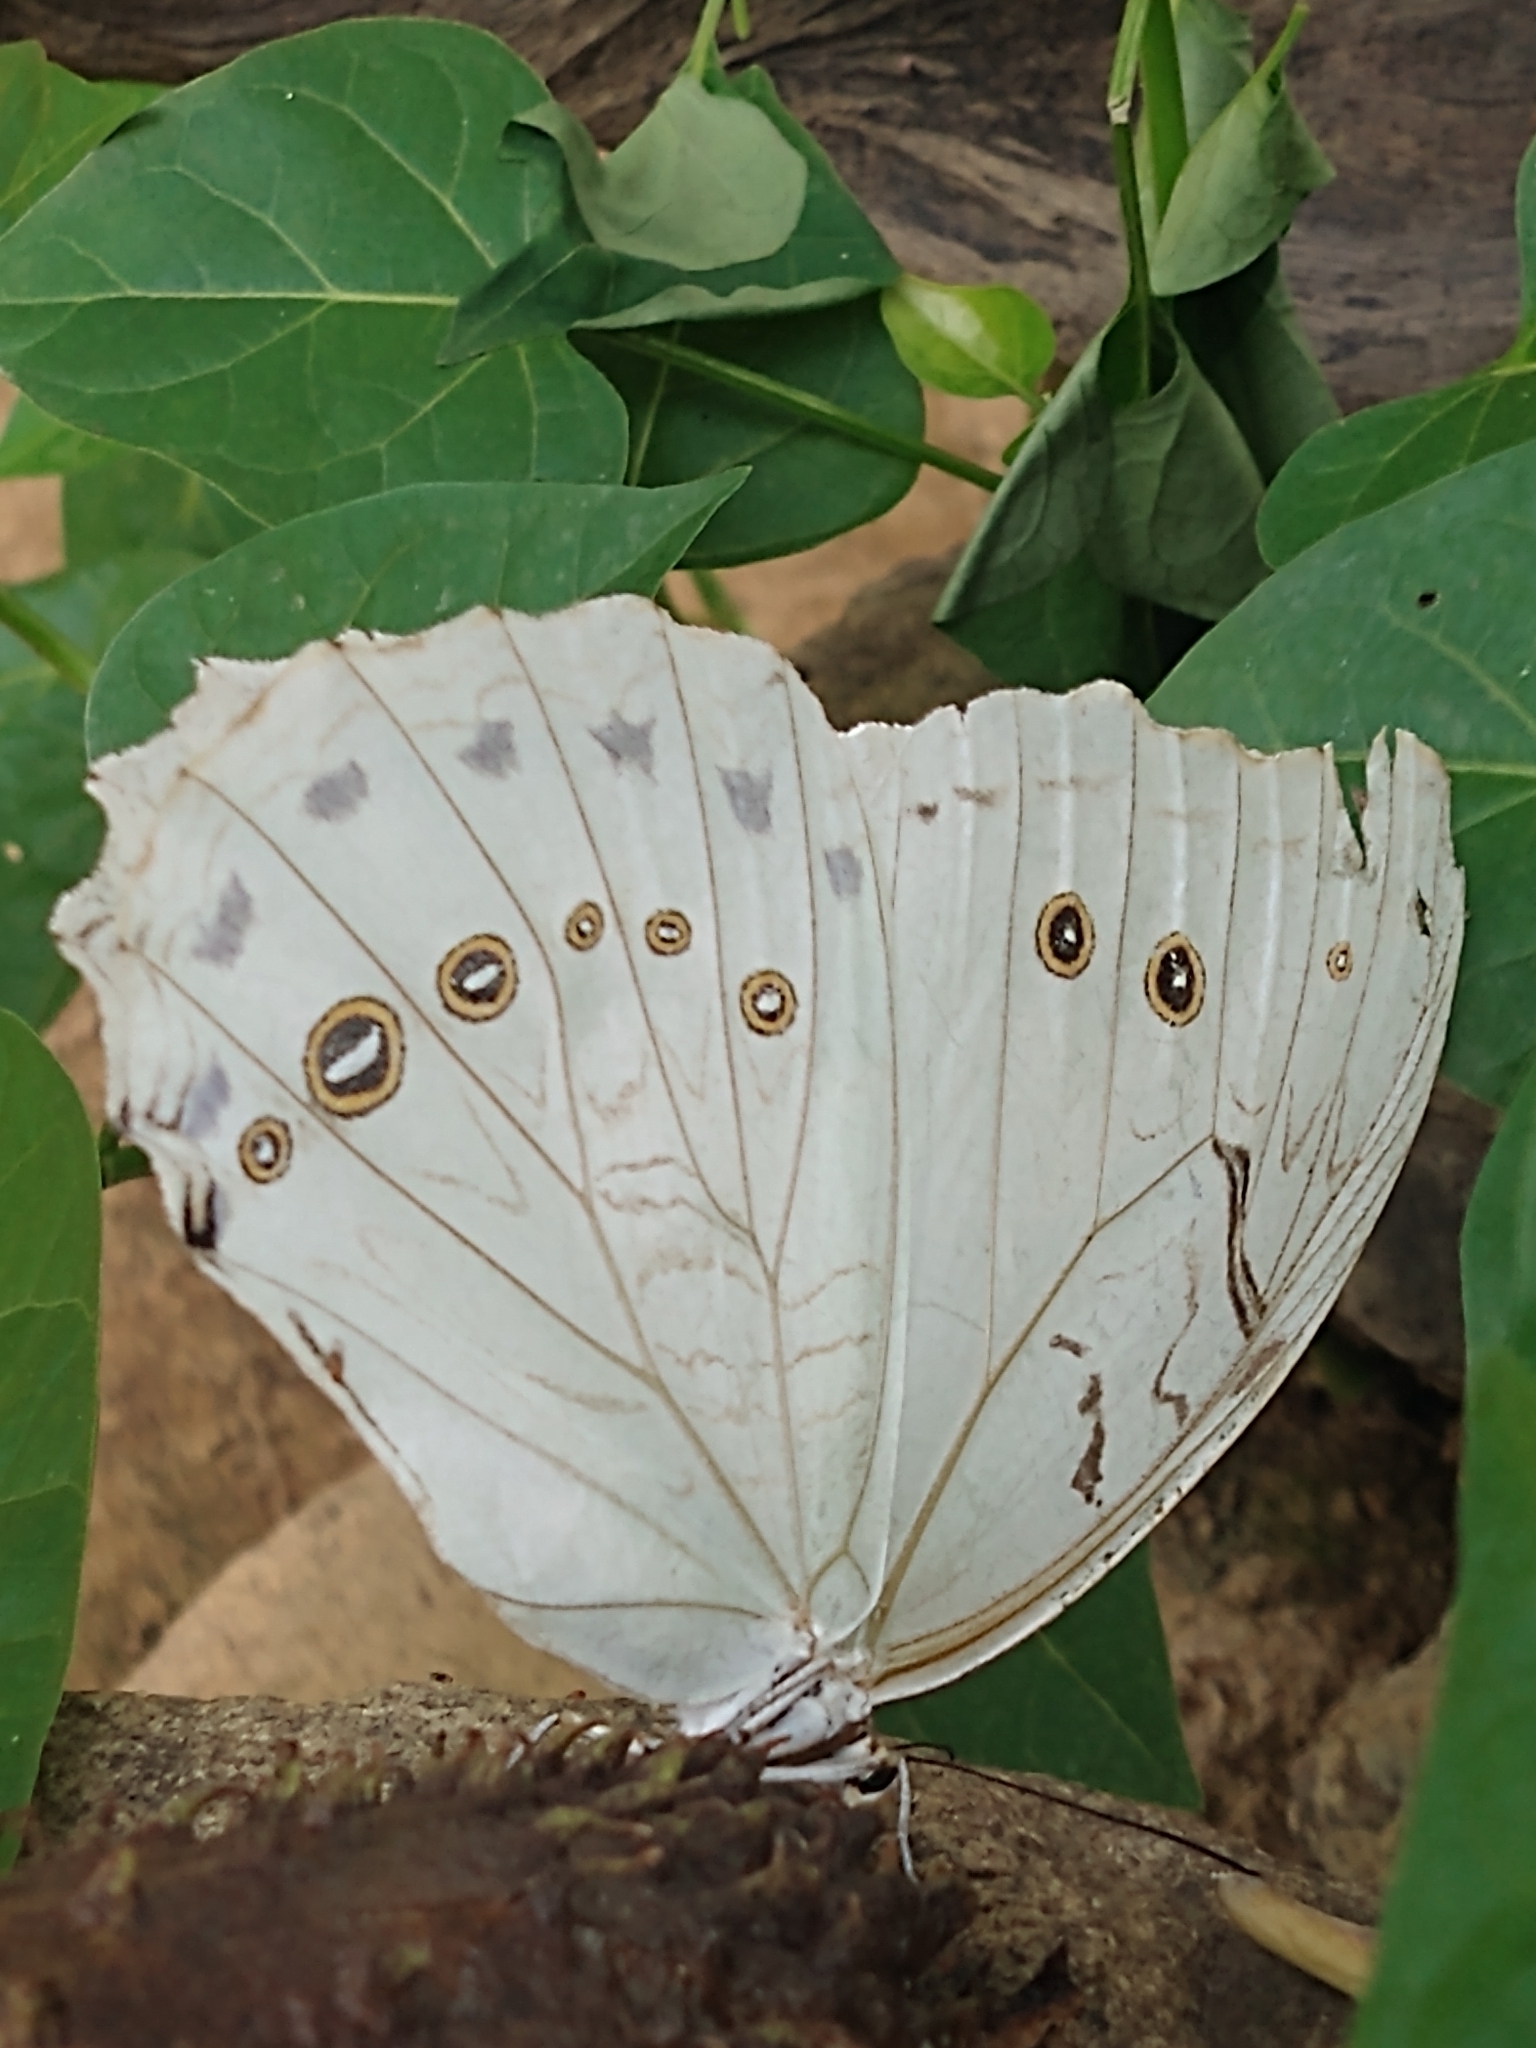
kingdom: Animalia
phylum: Arthropoda
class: Insecta
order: Lepidoptera
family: Nymphalidae
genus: Morpho
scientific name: Morpho polyphemus
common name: White morpho
